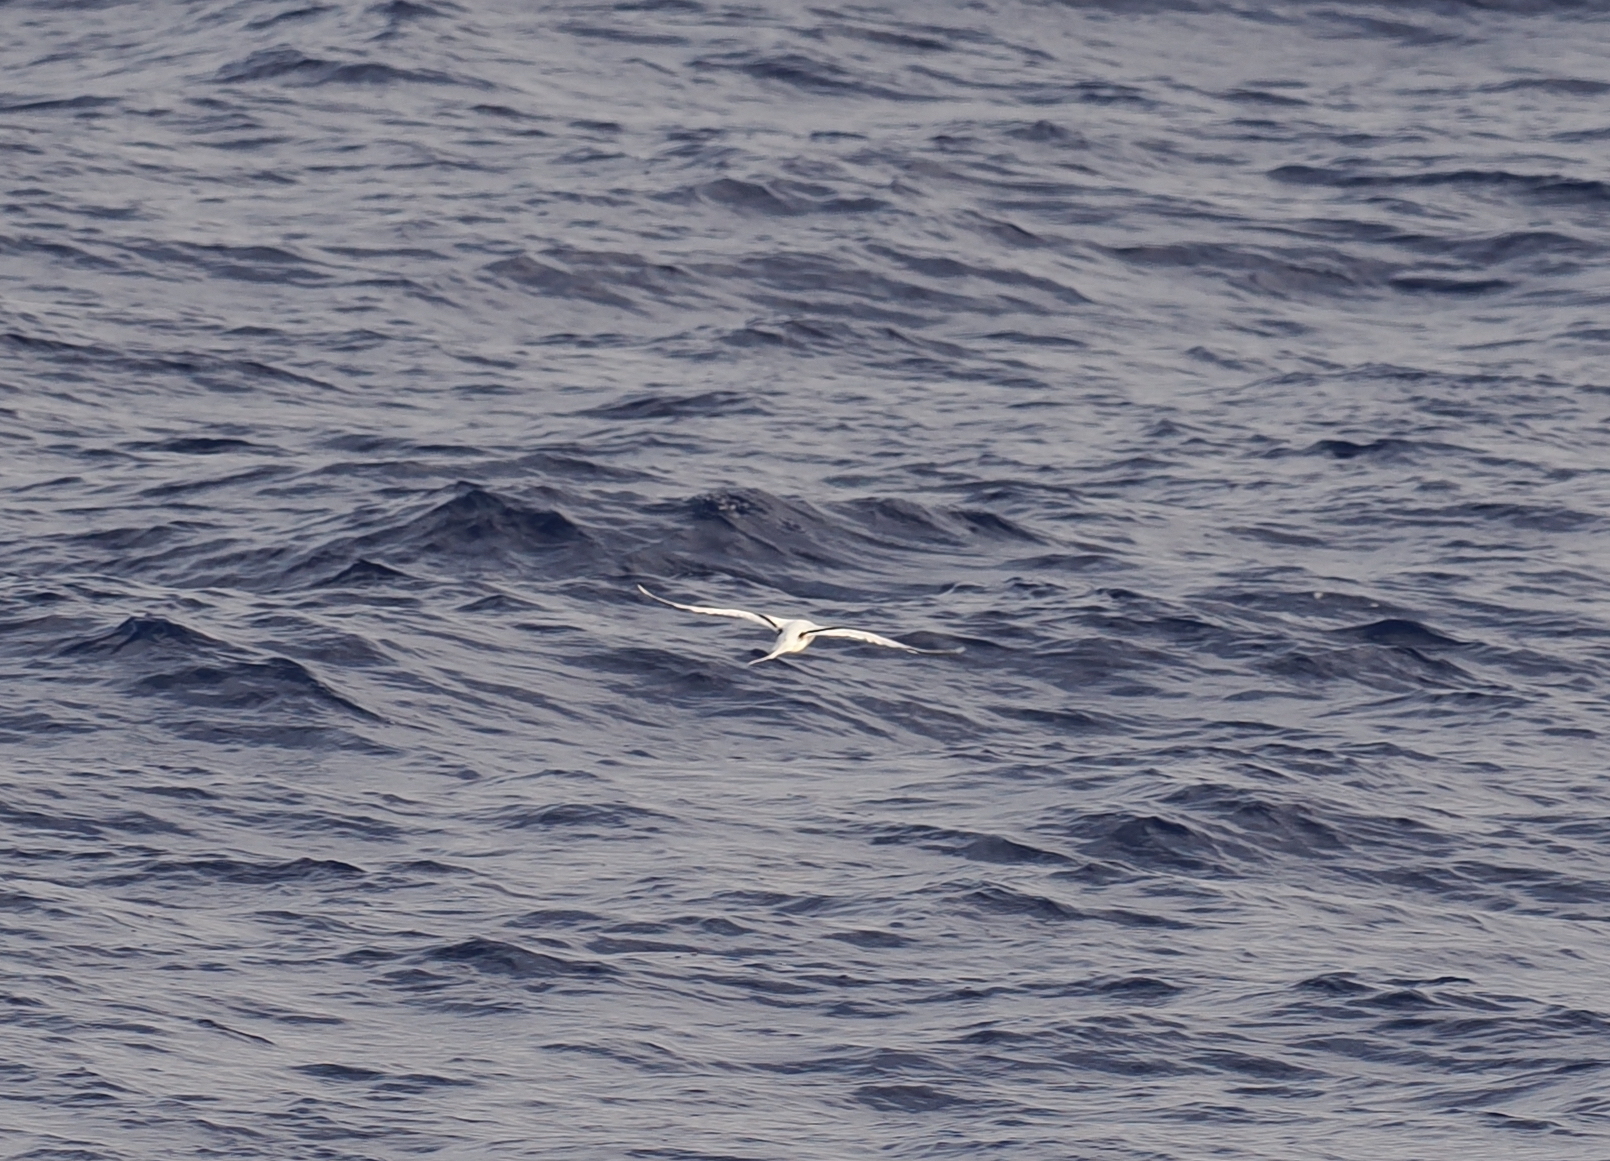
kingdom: Animalia
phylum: Chordata
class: Aves
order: Phaethontiformes
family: Phaethontidae
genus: Phaethon
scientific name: Phaethon lepturus
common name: White-tailed tropicbird
